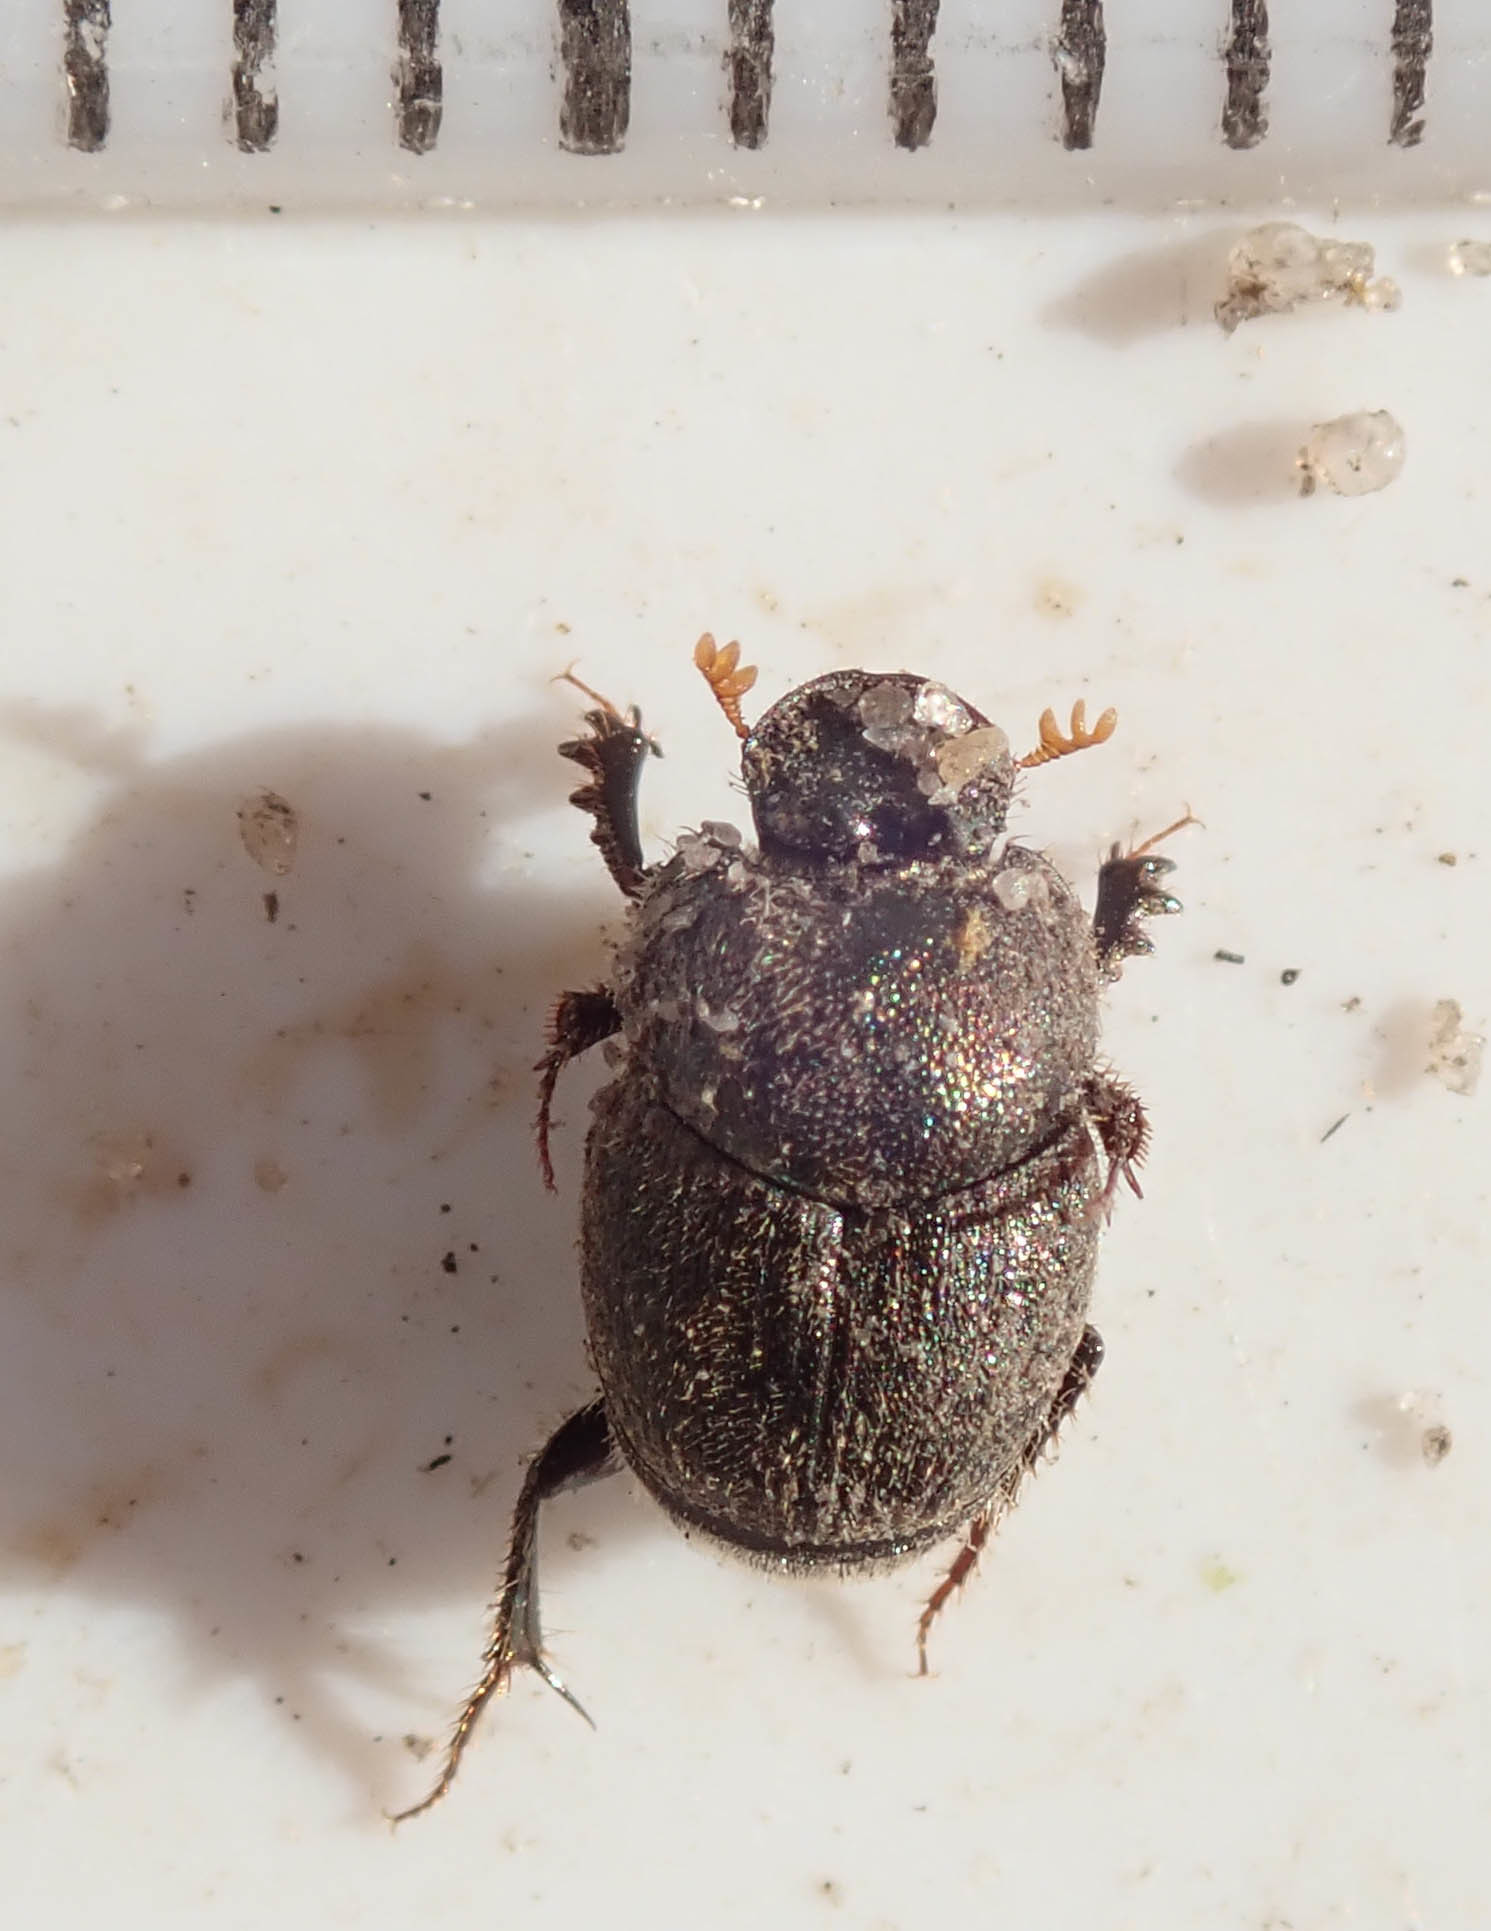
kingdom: Animalia
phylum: Arthropoda
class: Insecta
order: Coleoptera
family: Scarabaeidae
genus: Onthophagus
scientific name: Onthophagus aeruginosus
